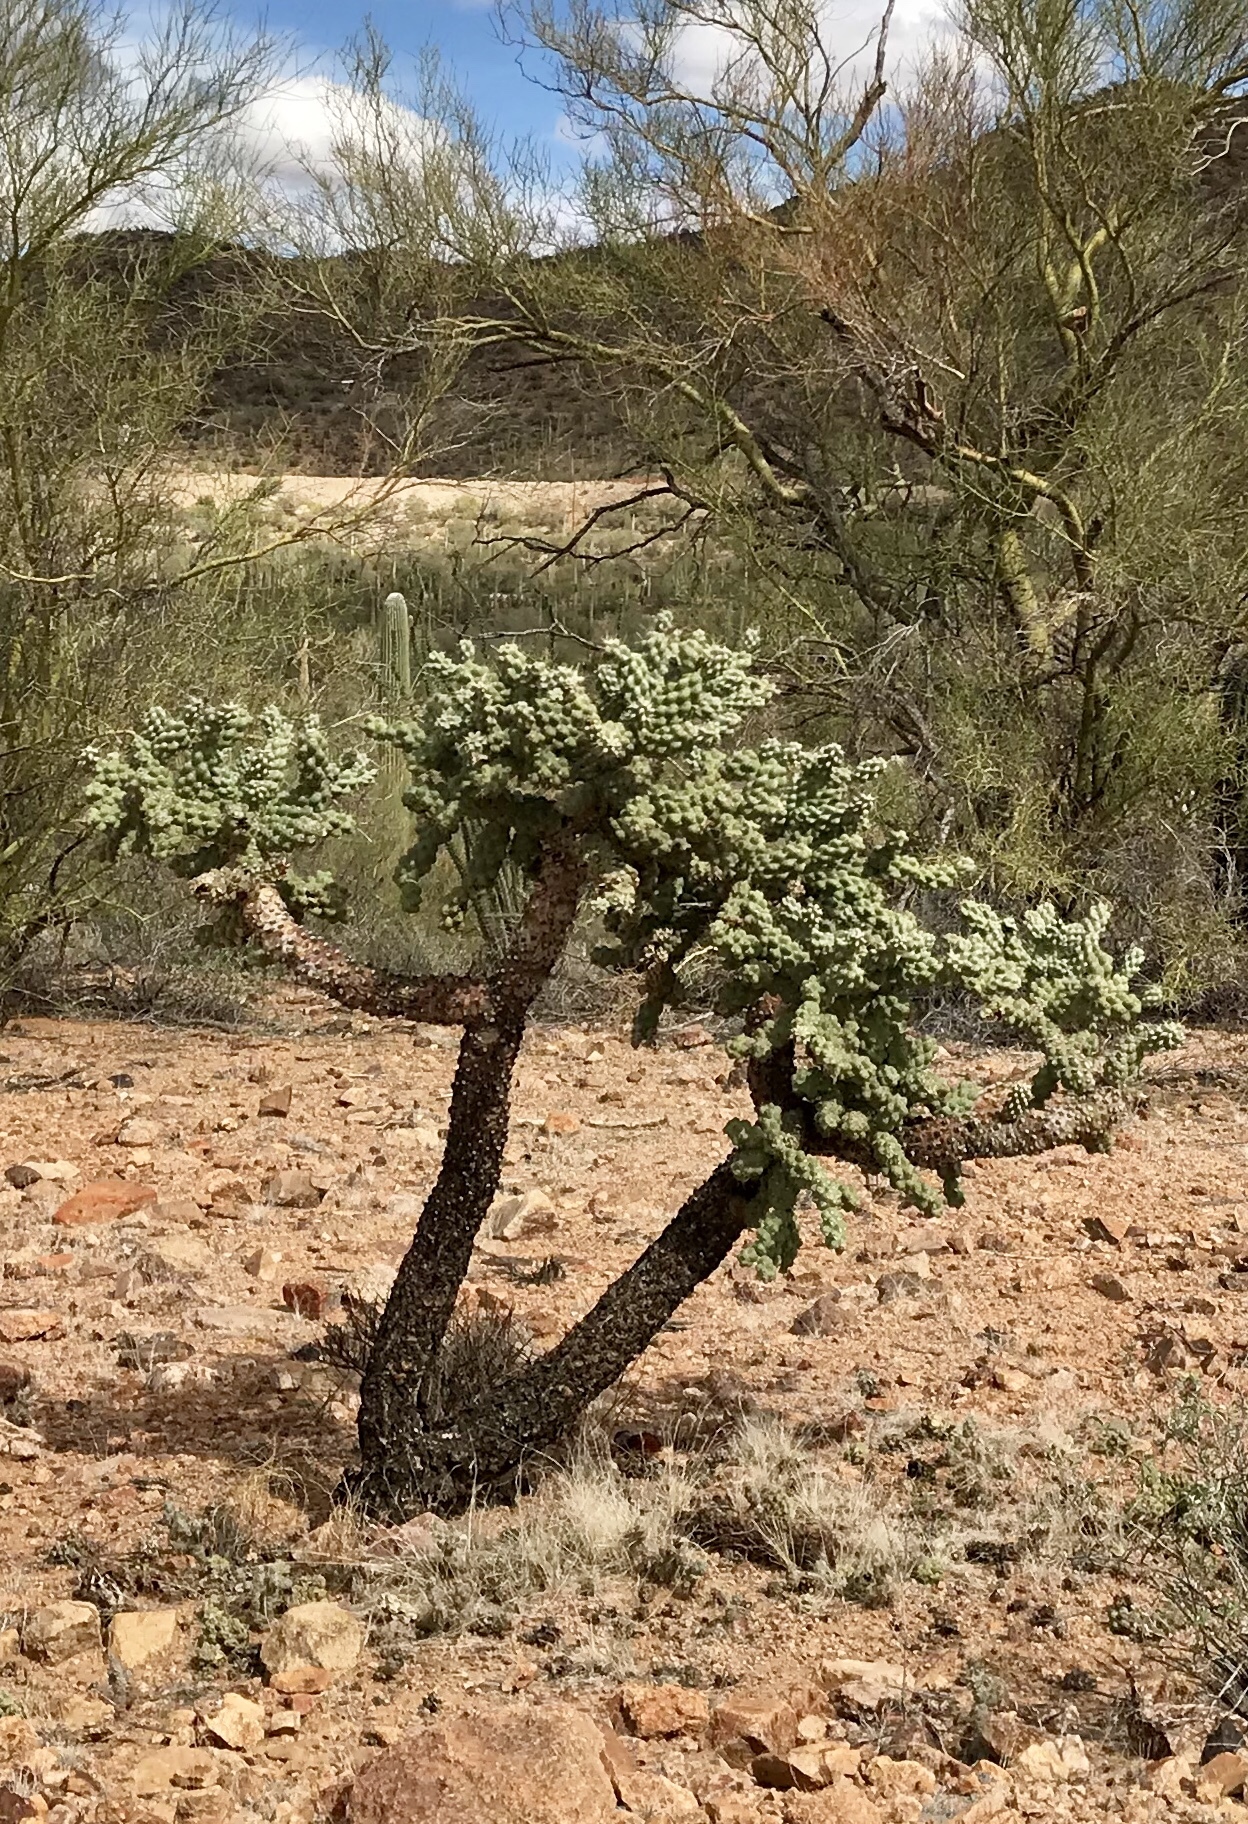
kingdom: Plantae
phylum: Tracheophyta
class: Magnoliopsida
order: Caryophyllales
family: Cactaceae
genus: Cylindropuntia
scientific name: Cylindropuntia fulgida
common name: Jumping cholla
